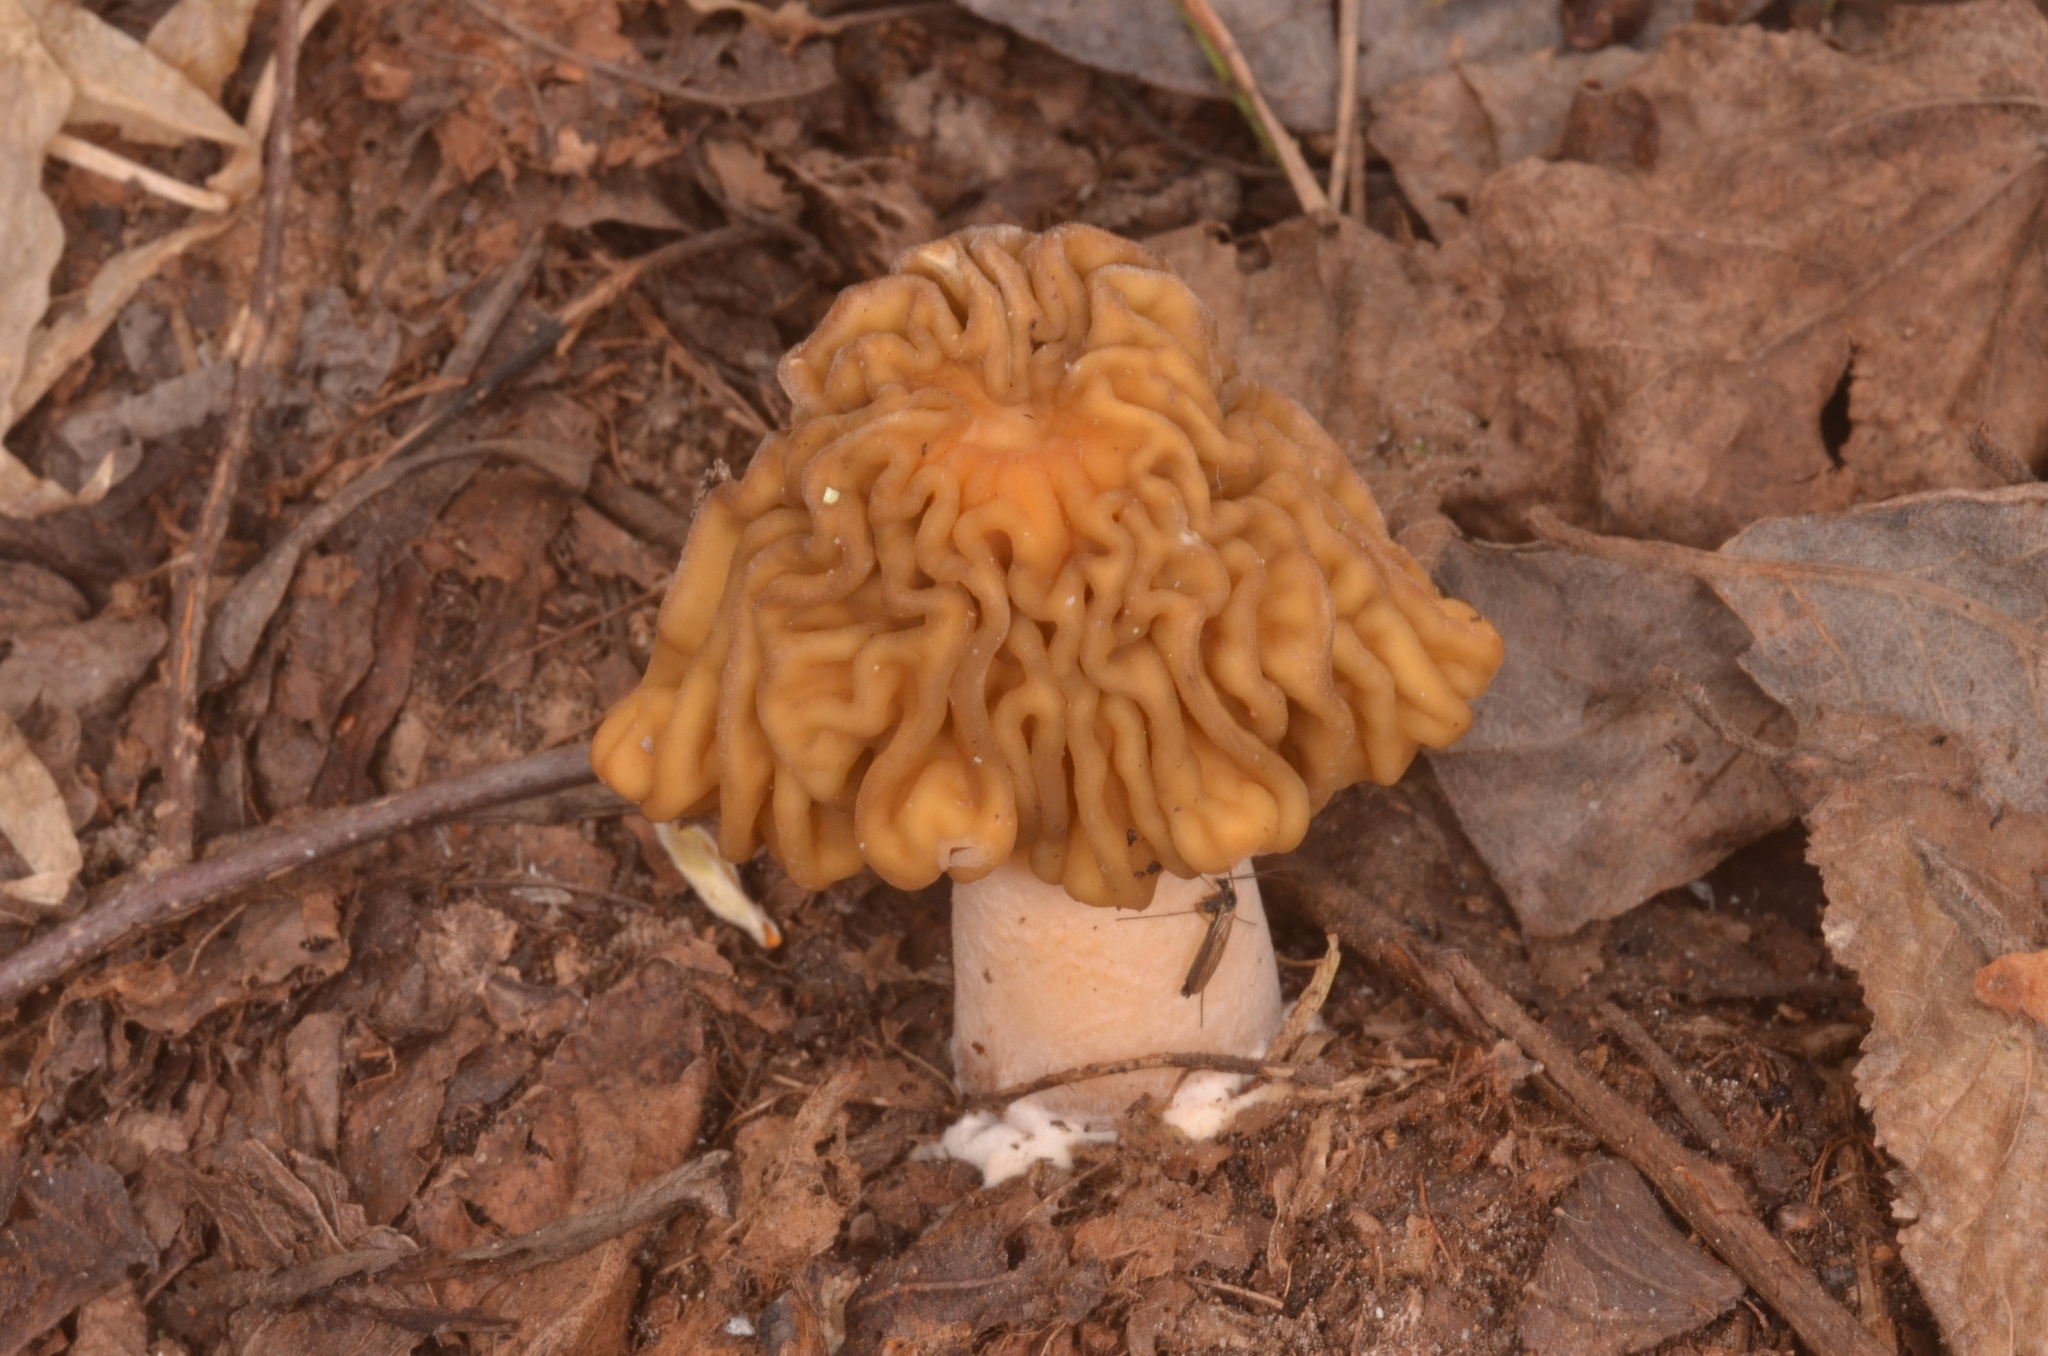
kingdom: Fungi
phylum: Ascomycota
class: Pezizomycetes
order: Pezizales
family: Morchellaceae
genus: Verpa
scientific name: Verpa bohemica
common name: Wrinkled thimble morel
